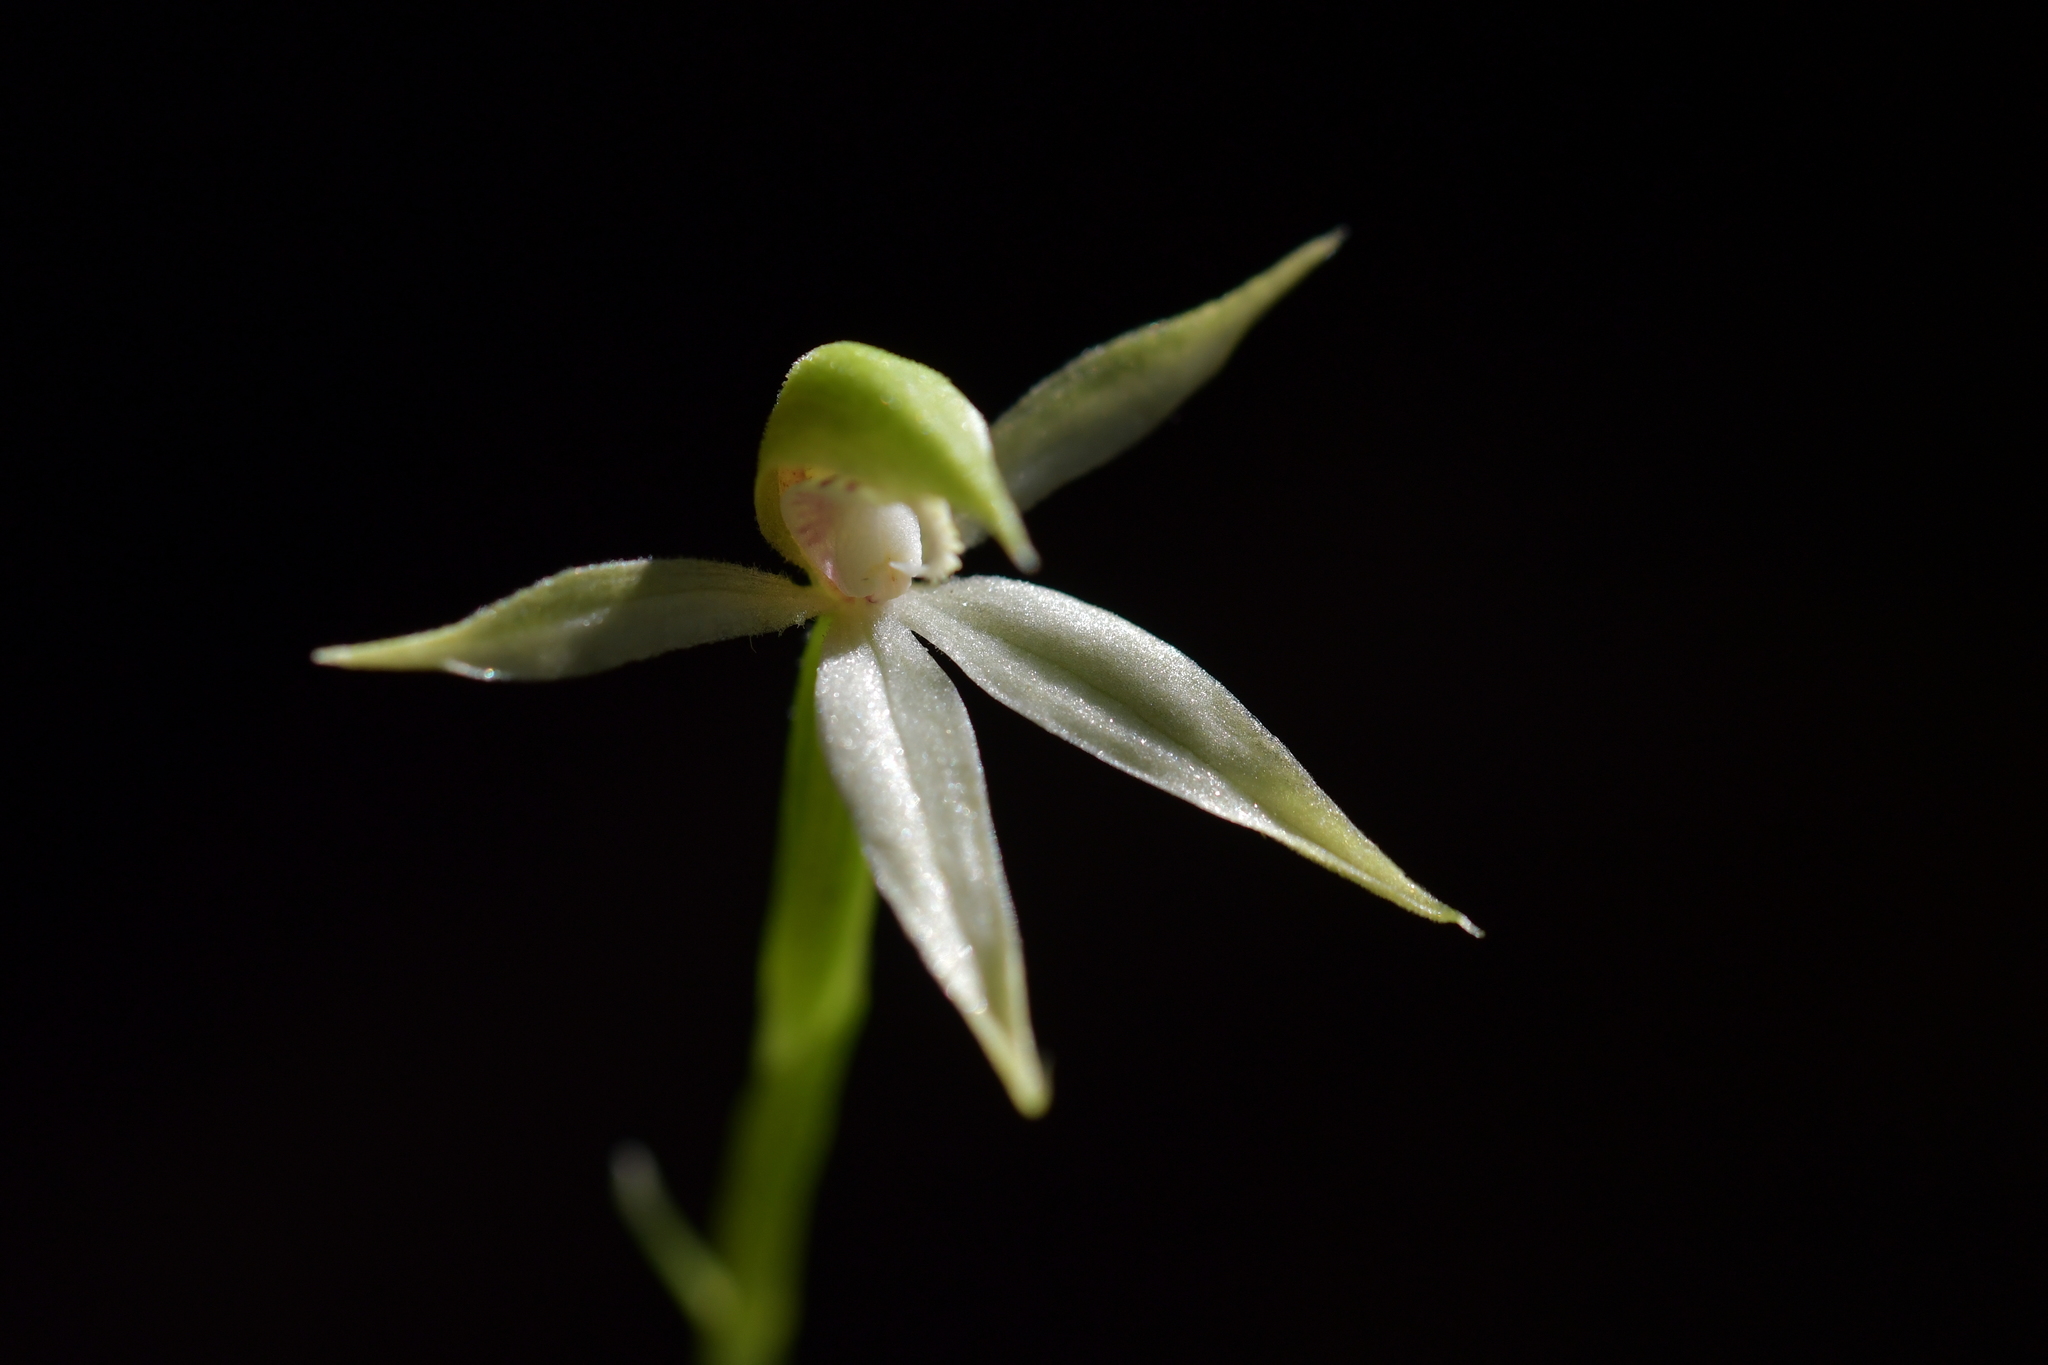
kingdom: Plantae
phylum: Tracheophyta
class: Liliopsida
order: Asparagales
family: Orchidaceae
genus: Adenochilus
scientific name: Adenochilus gracilis
